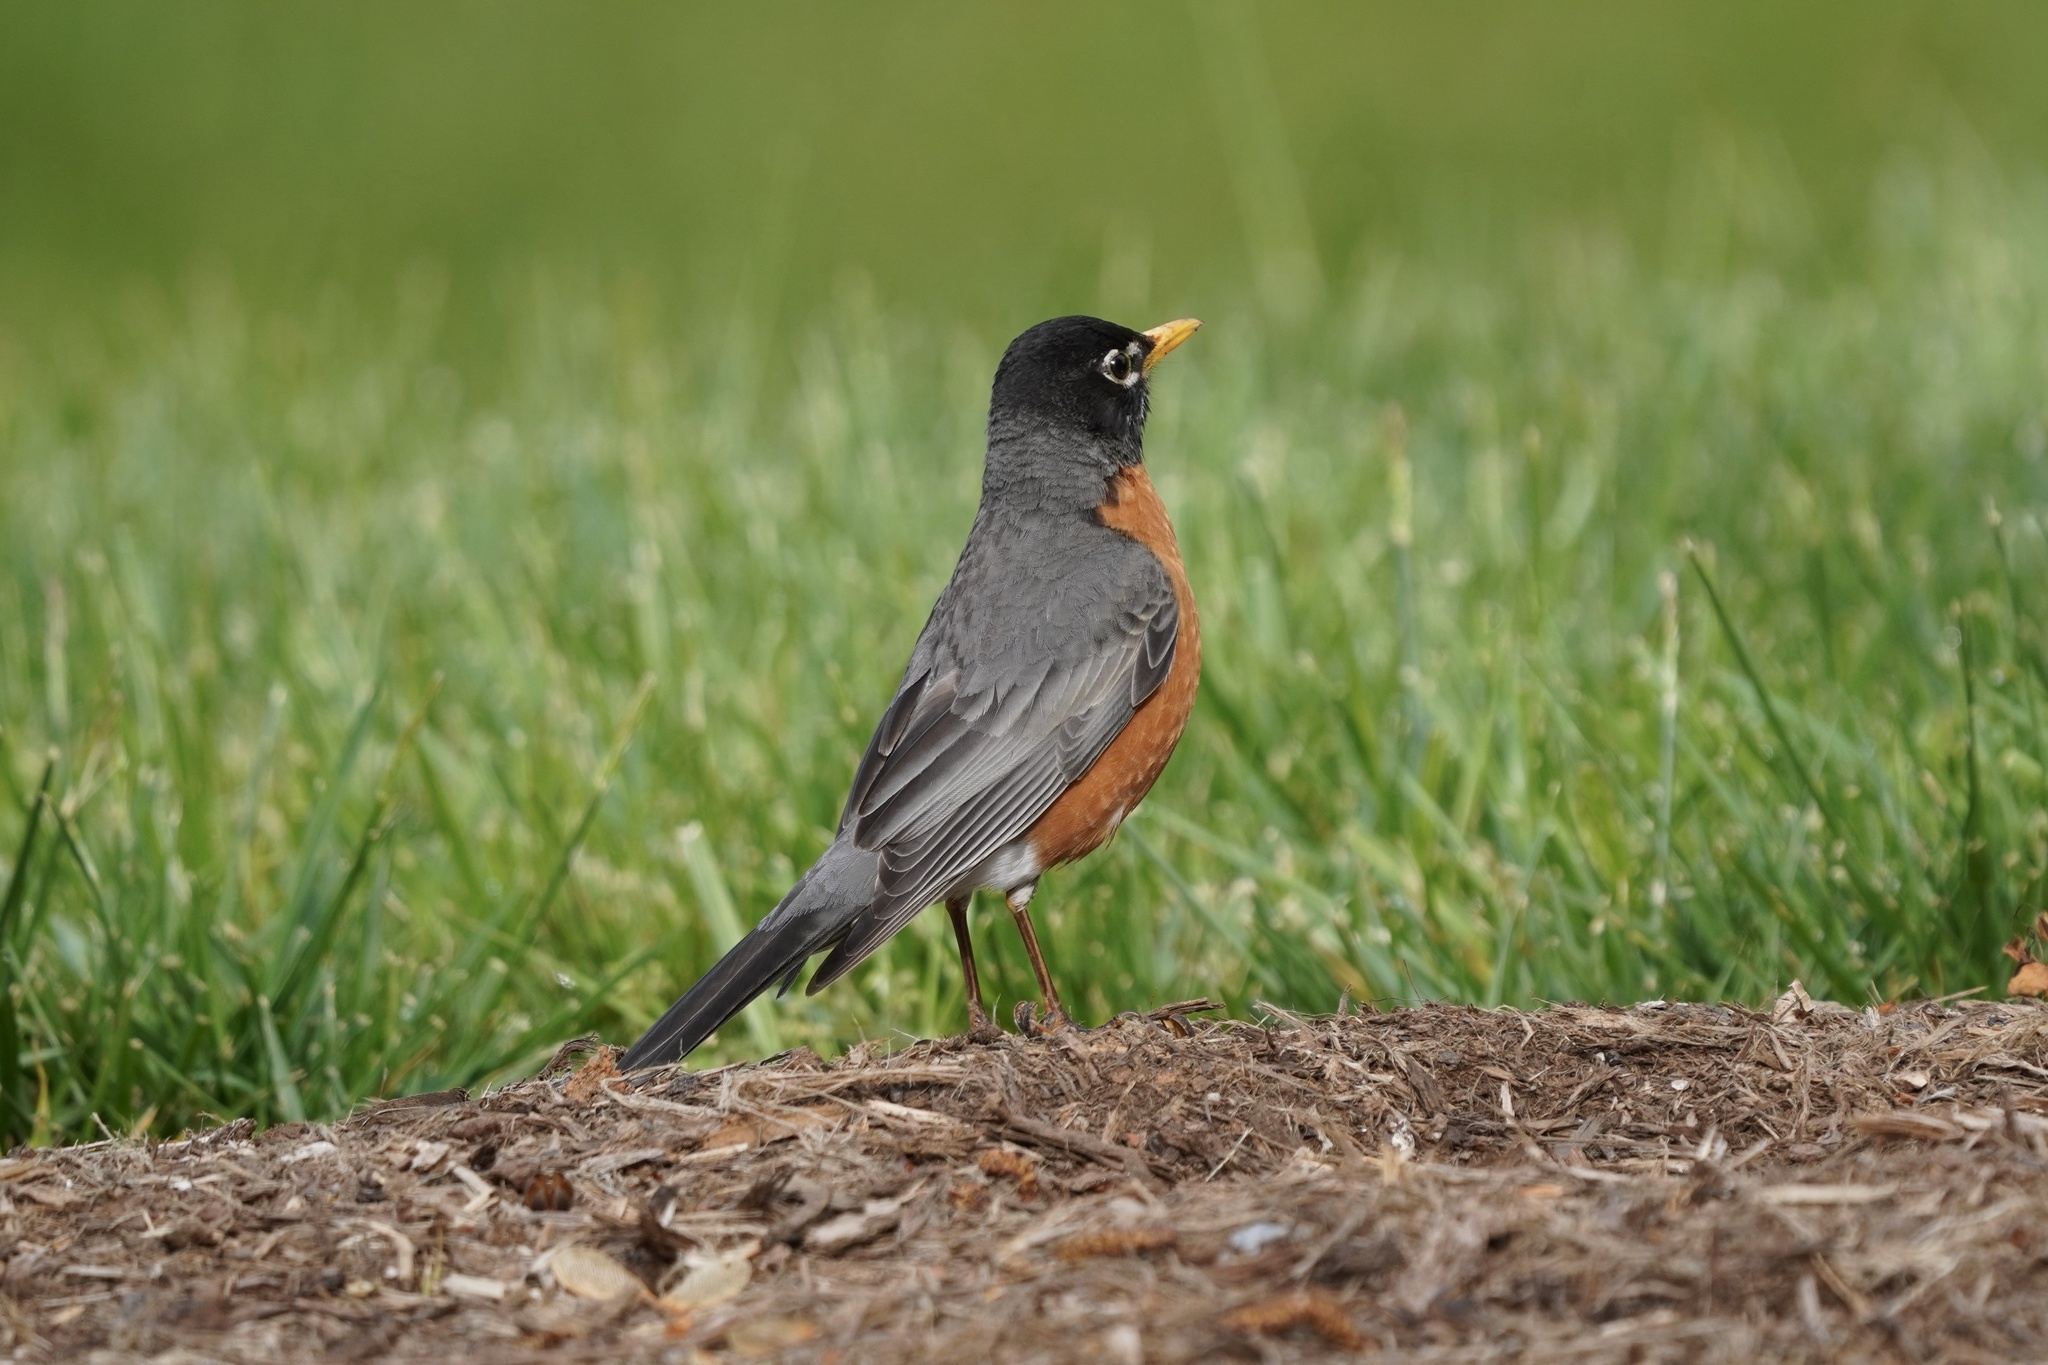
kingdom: Animalia
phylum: Chordata
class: Aves
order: Passeriformes
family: Turdidae
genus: Turdus
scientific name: Turdus migratorius
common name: American robin
